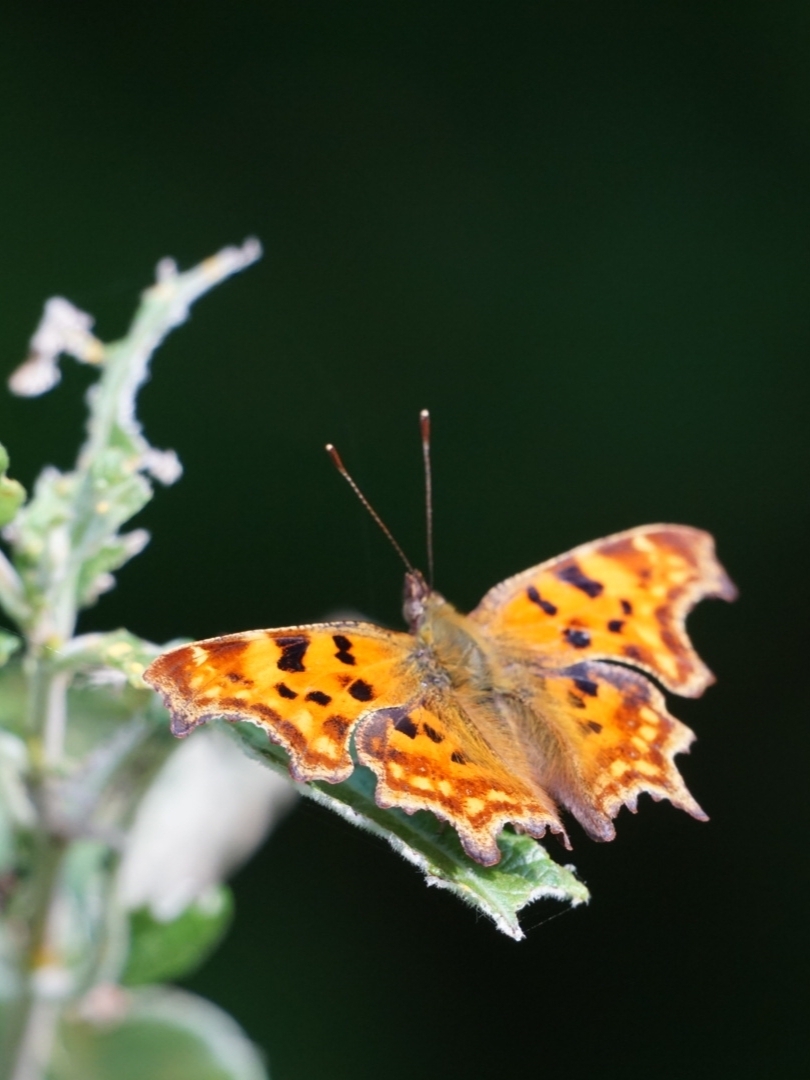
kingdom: Animalia
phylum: Arthropoda
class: Insecta
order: Lepidoptera
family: Nymphalidae
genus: Polygonia
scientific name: Polygonia c-album
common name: Comma
